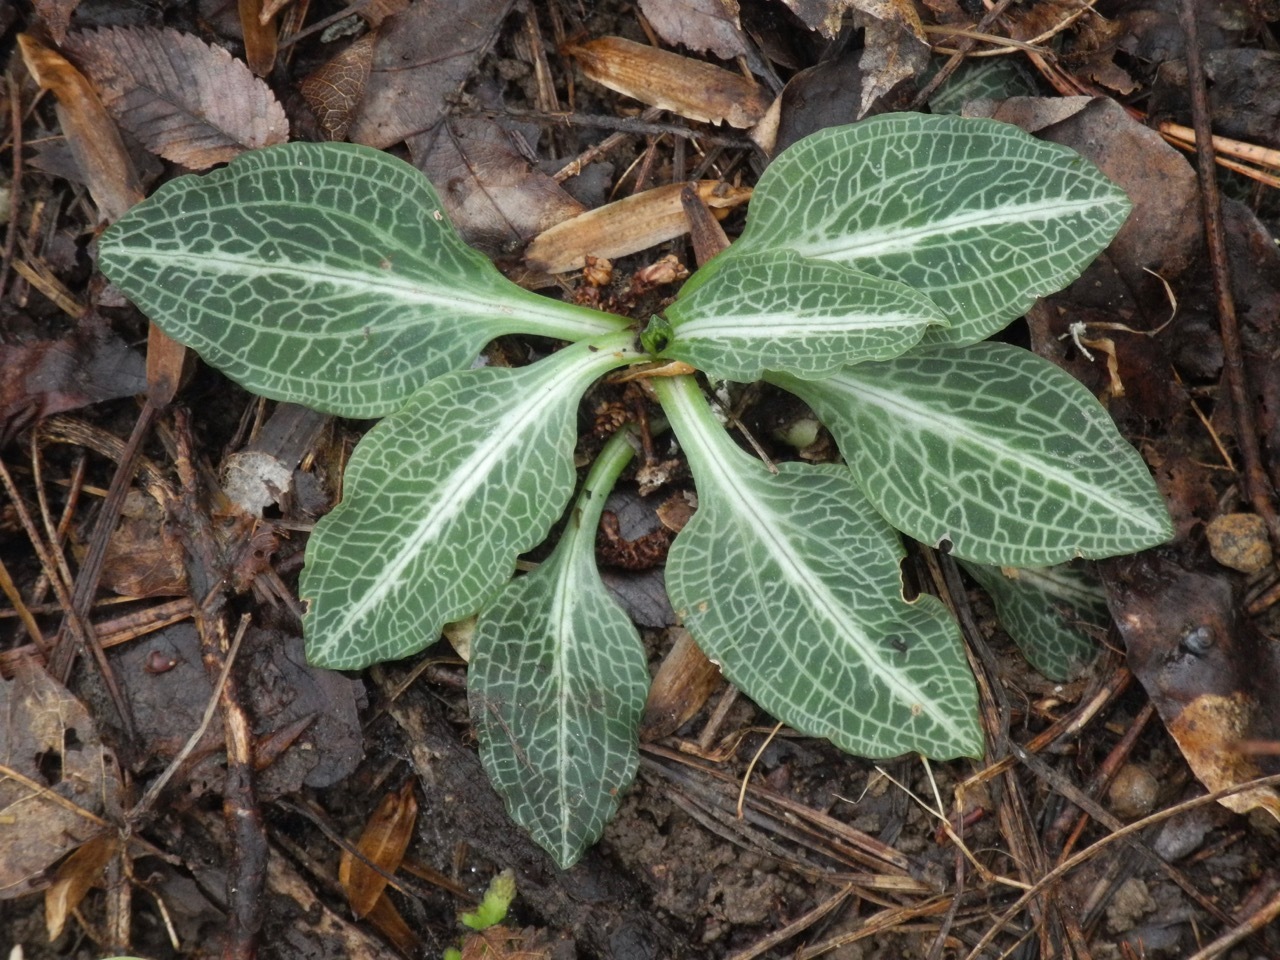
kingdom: Plantae
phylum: Tracheophyta
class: Liliopsida
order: Asparagales
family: Orchidaceae
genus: Goodyera
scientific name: Goodyera pubescens
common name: Downy rattlesnake-plantain
